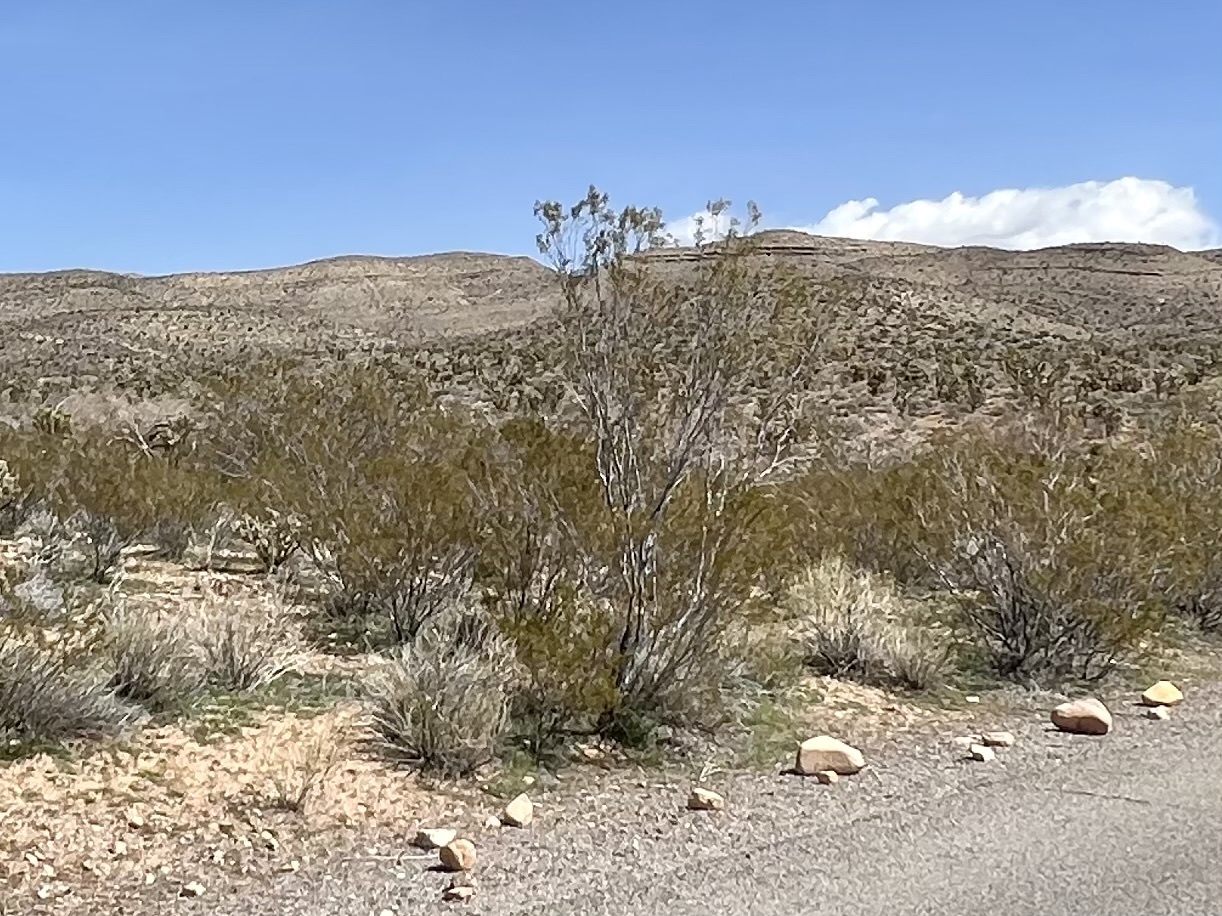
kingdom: Plantae
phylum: Tracheophyta
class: Magnoliopsida
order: Zygophyllales
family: Zygophyllaceae
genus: Larrea
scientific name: Larrea tridentata
